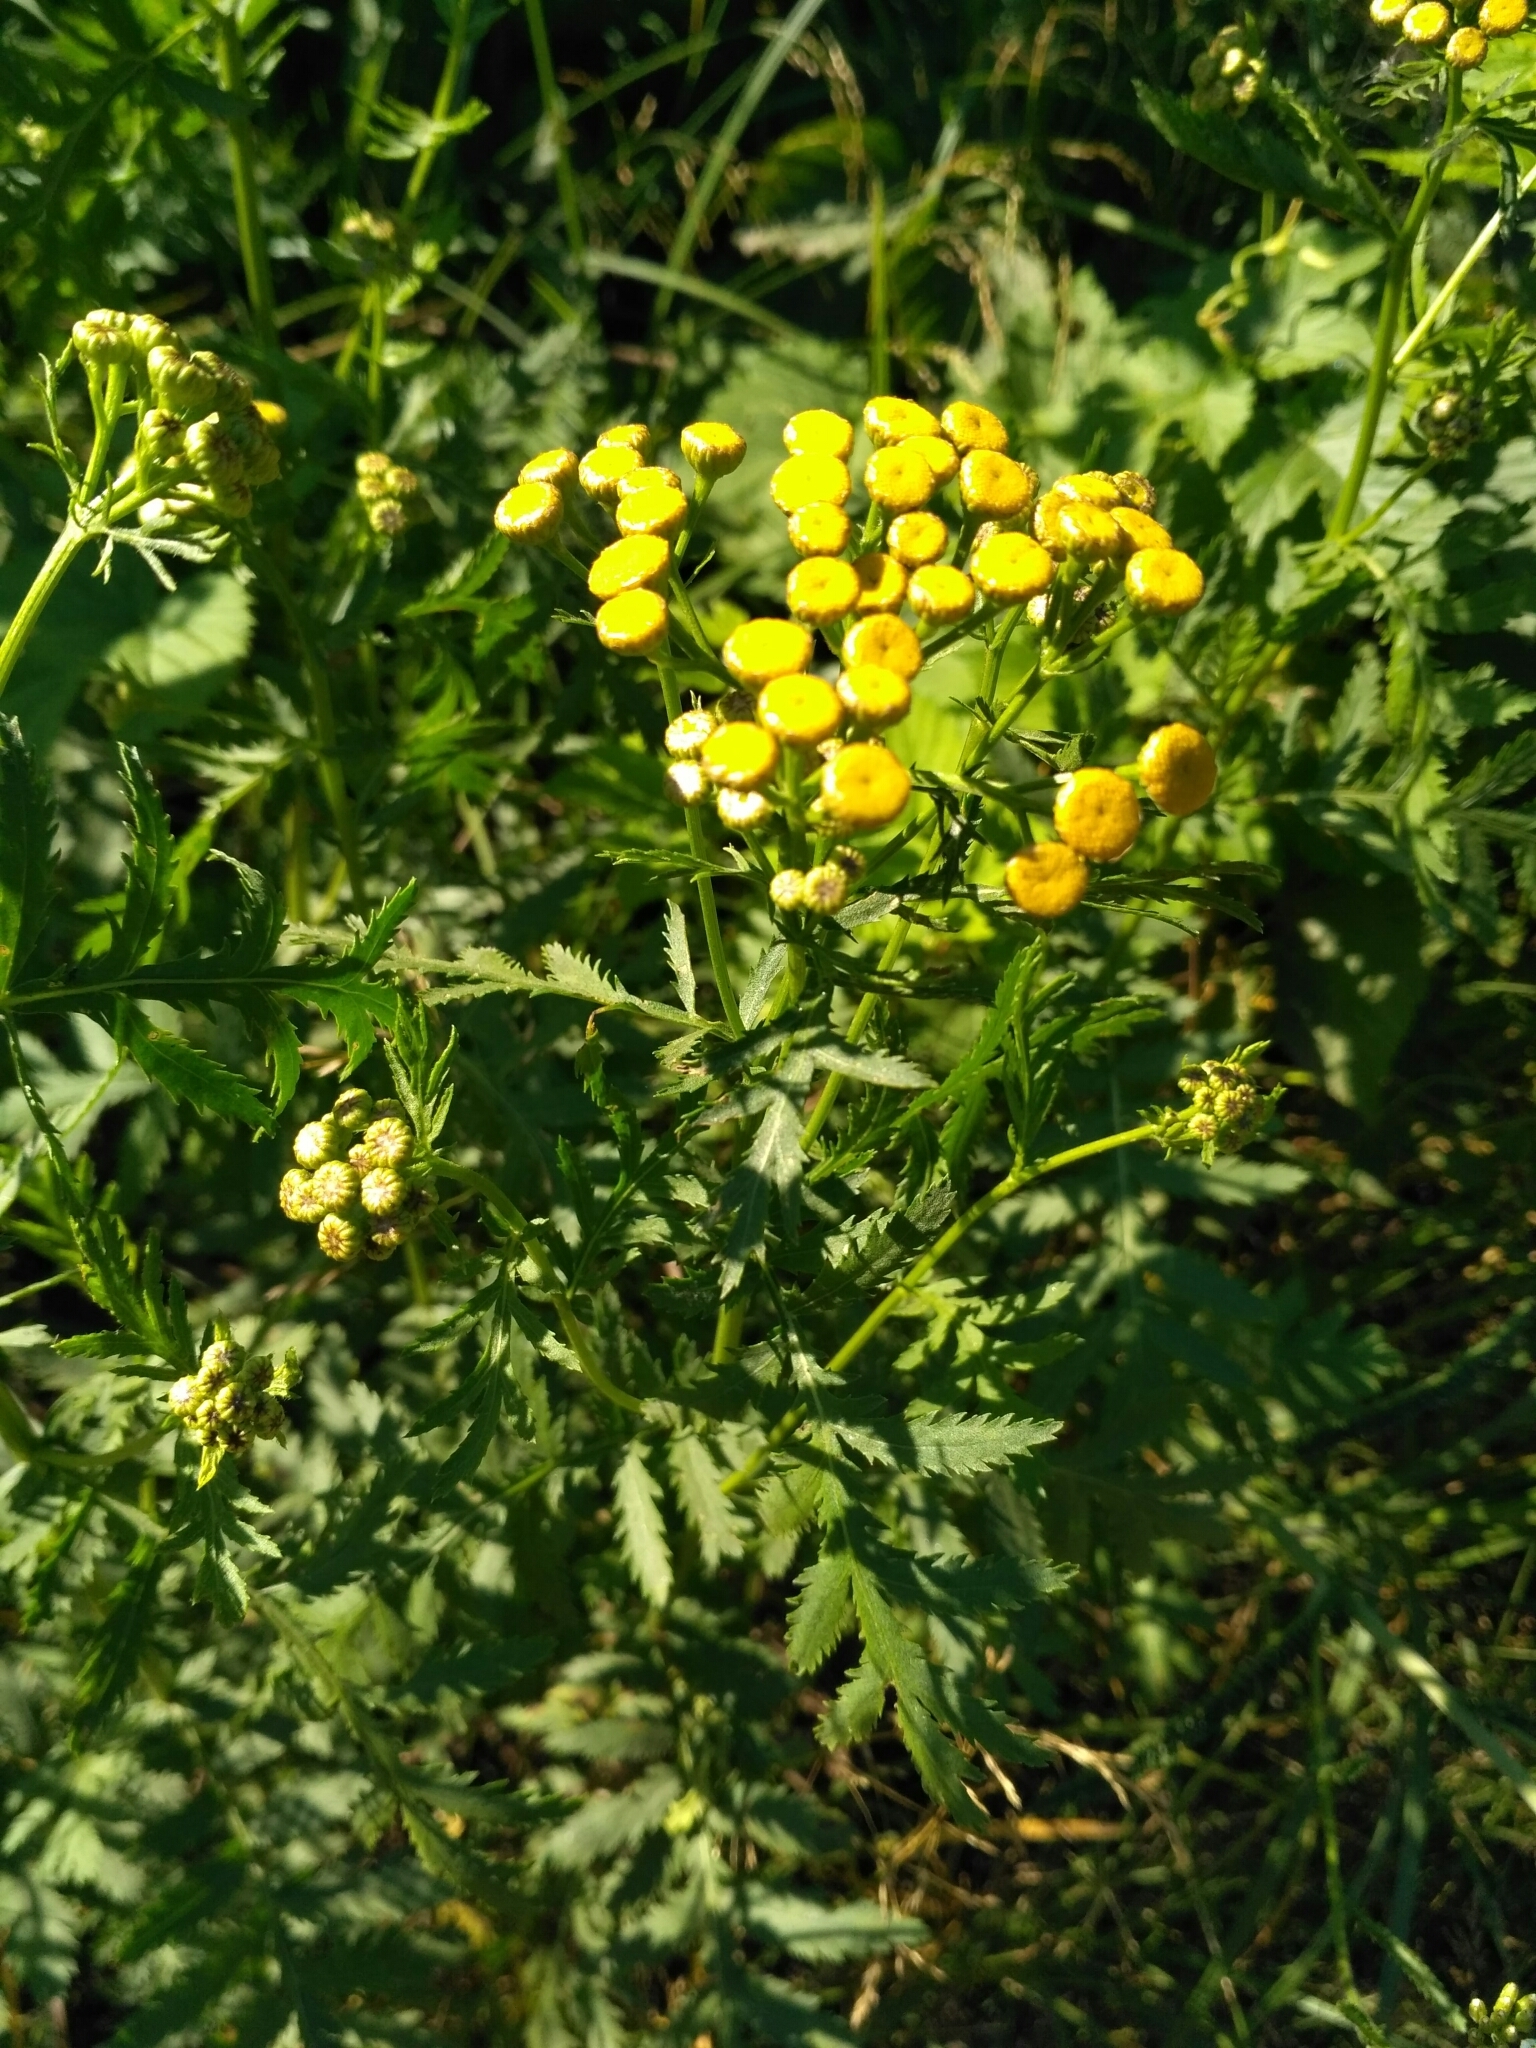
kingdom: Plantae
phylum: Tracheophyta
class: Magnoliopsida
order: Asterales
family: Asteraceae
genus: Tanacetum
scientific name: Tanacetum vulgare
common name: Common tansy
